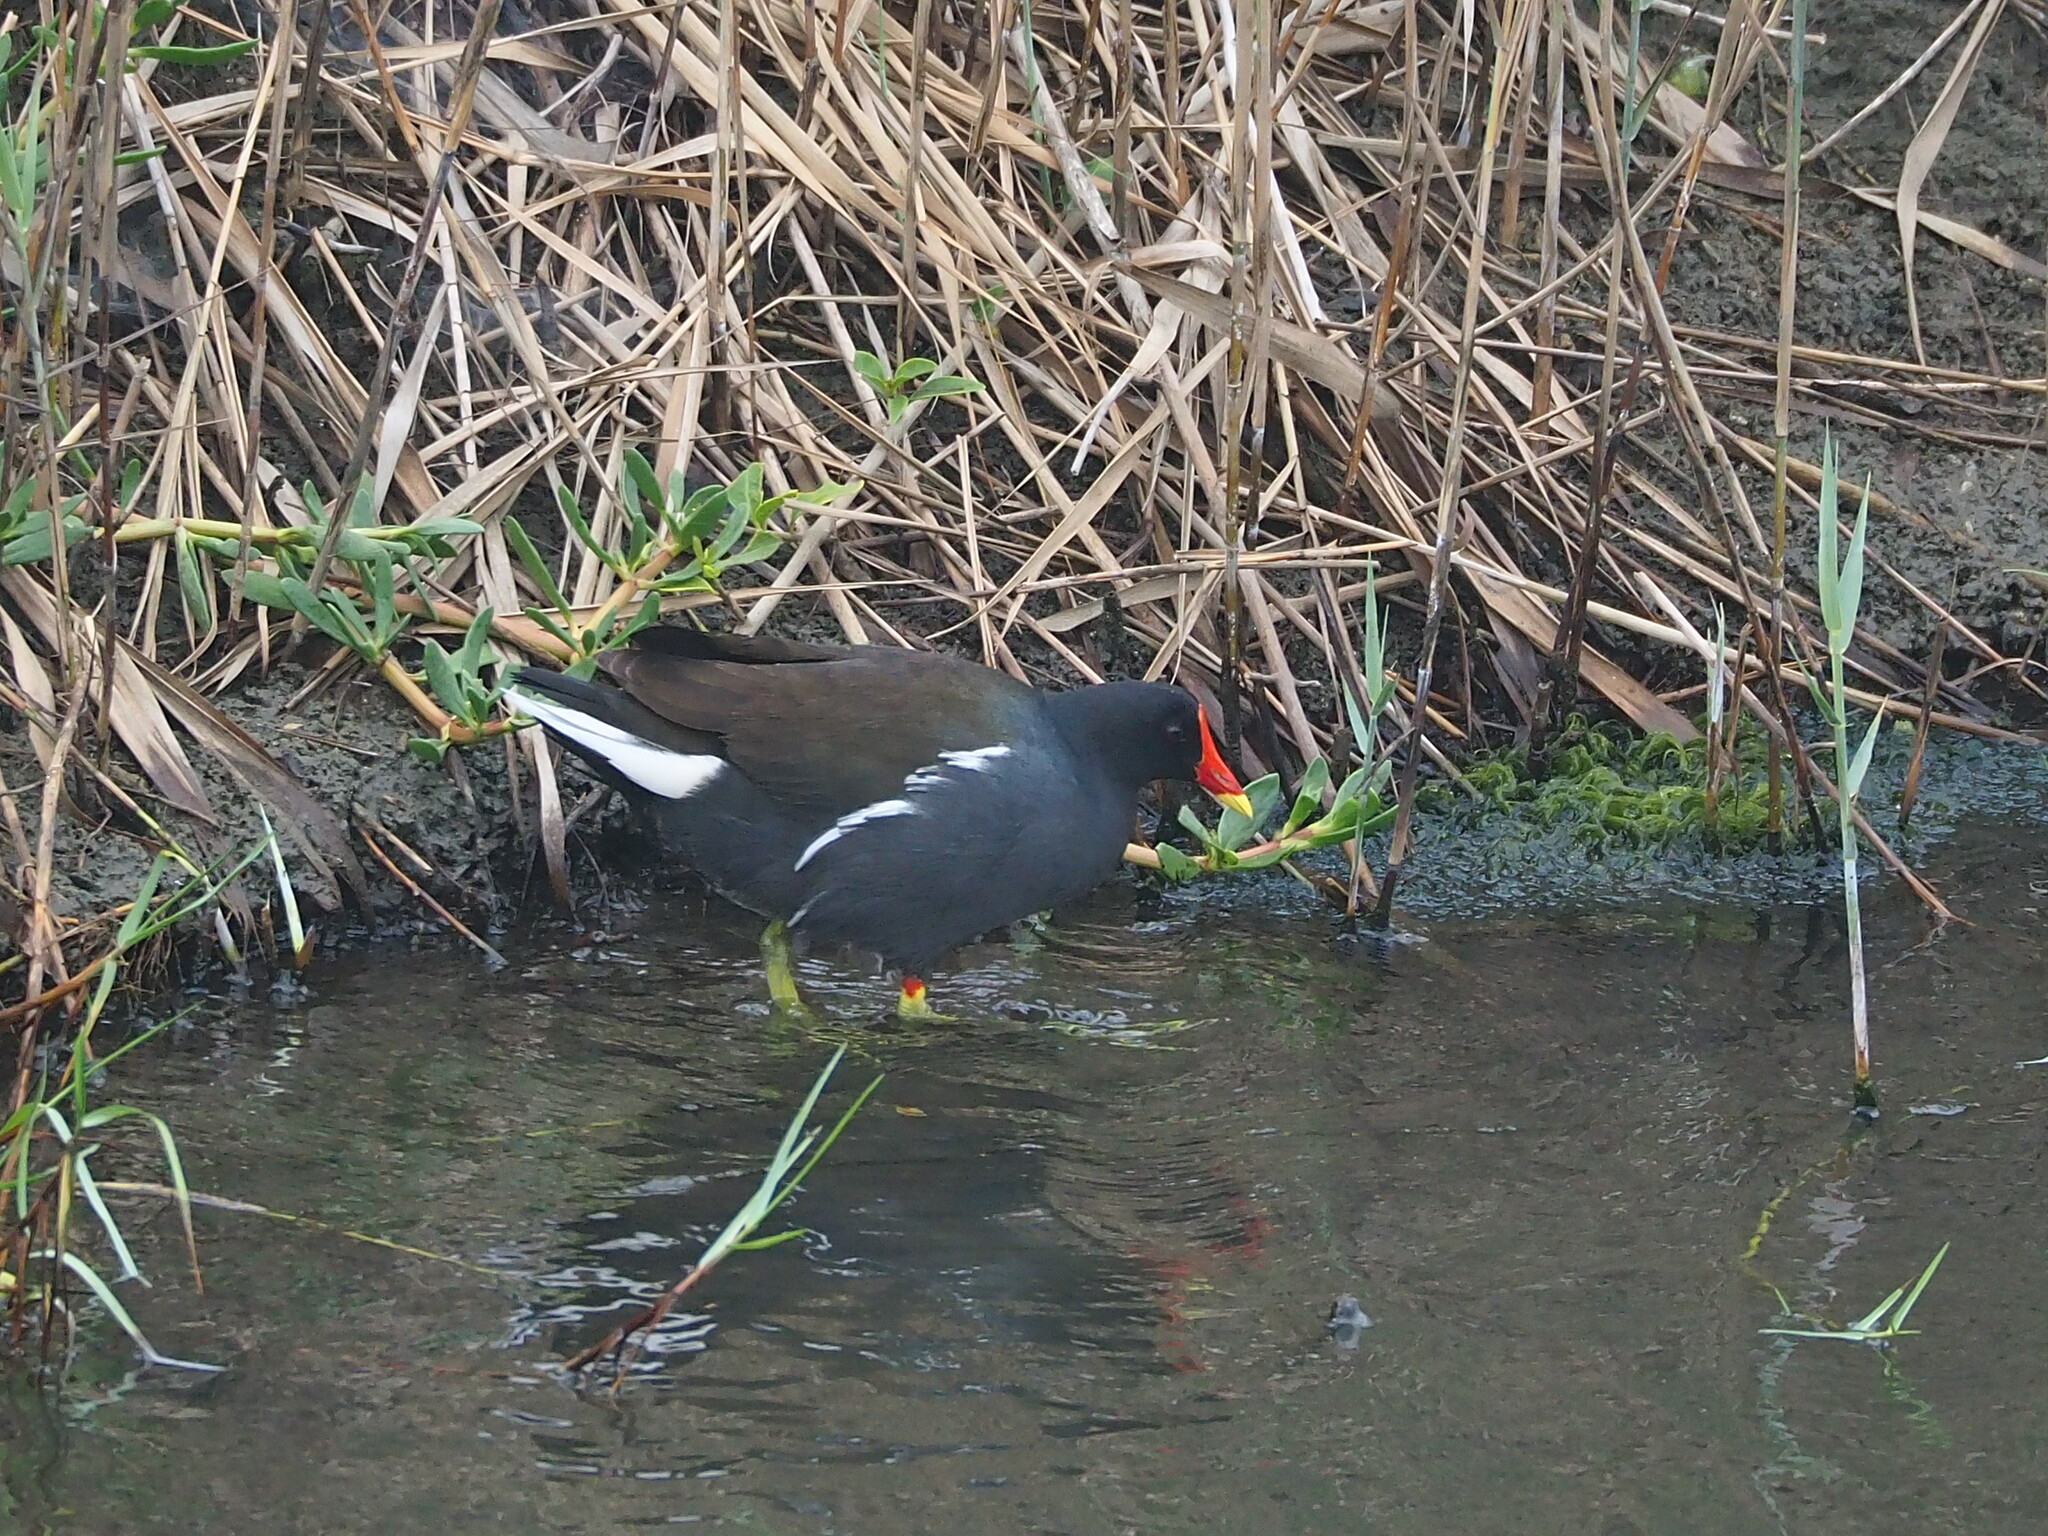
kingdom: Animalia
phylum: Chordata
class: Aves
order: Gruiformes
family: Rallidae
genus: Gallinula
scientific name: Gallinula chloropus
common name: Common moorhen
